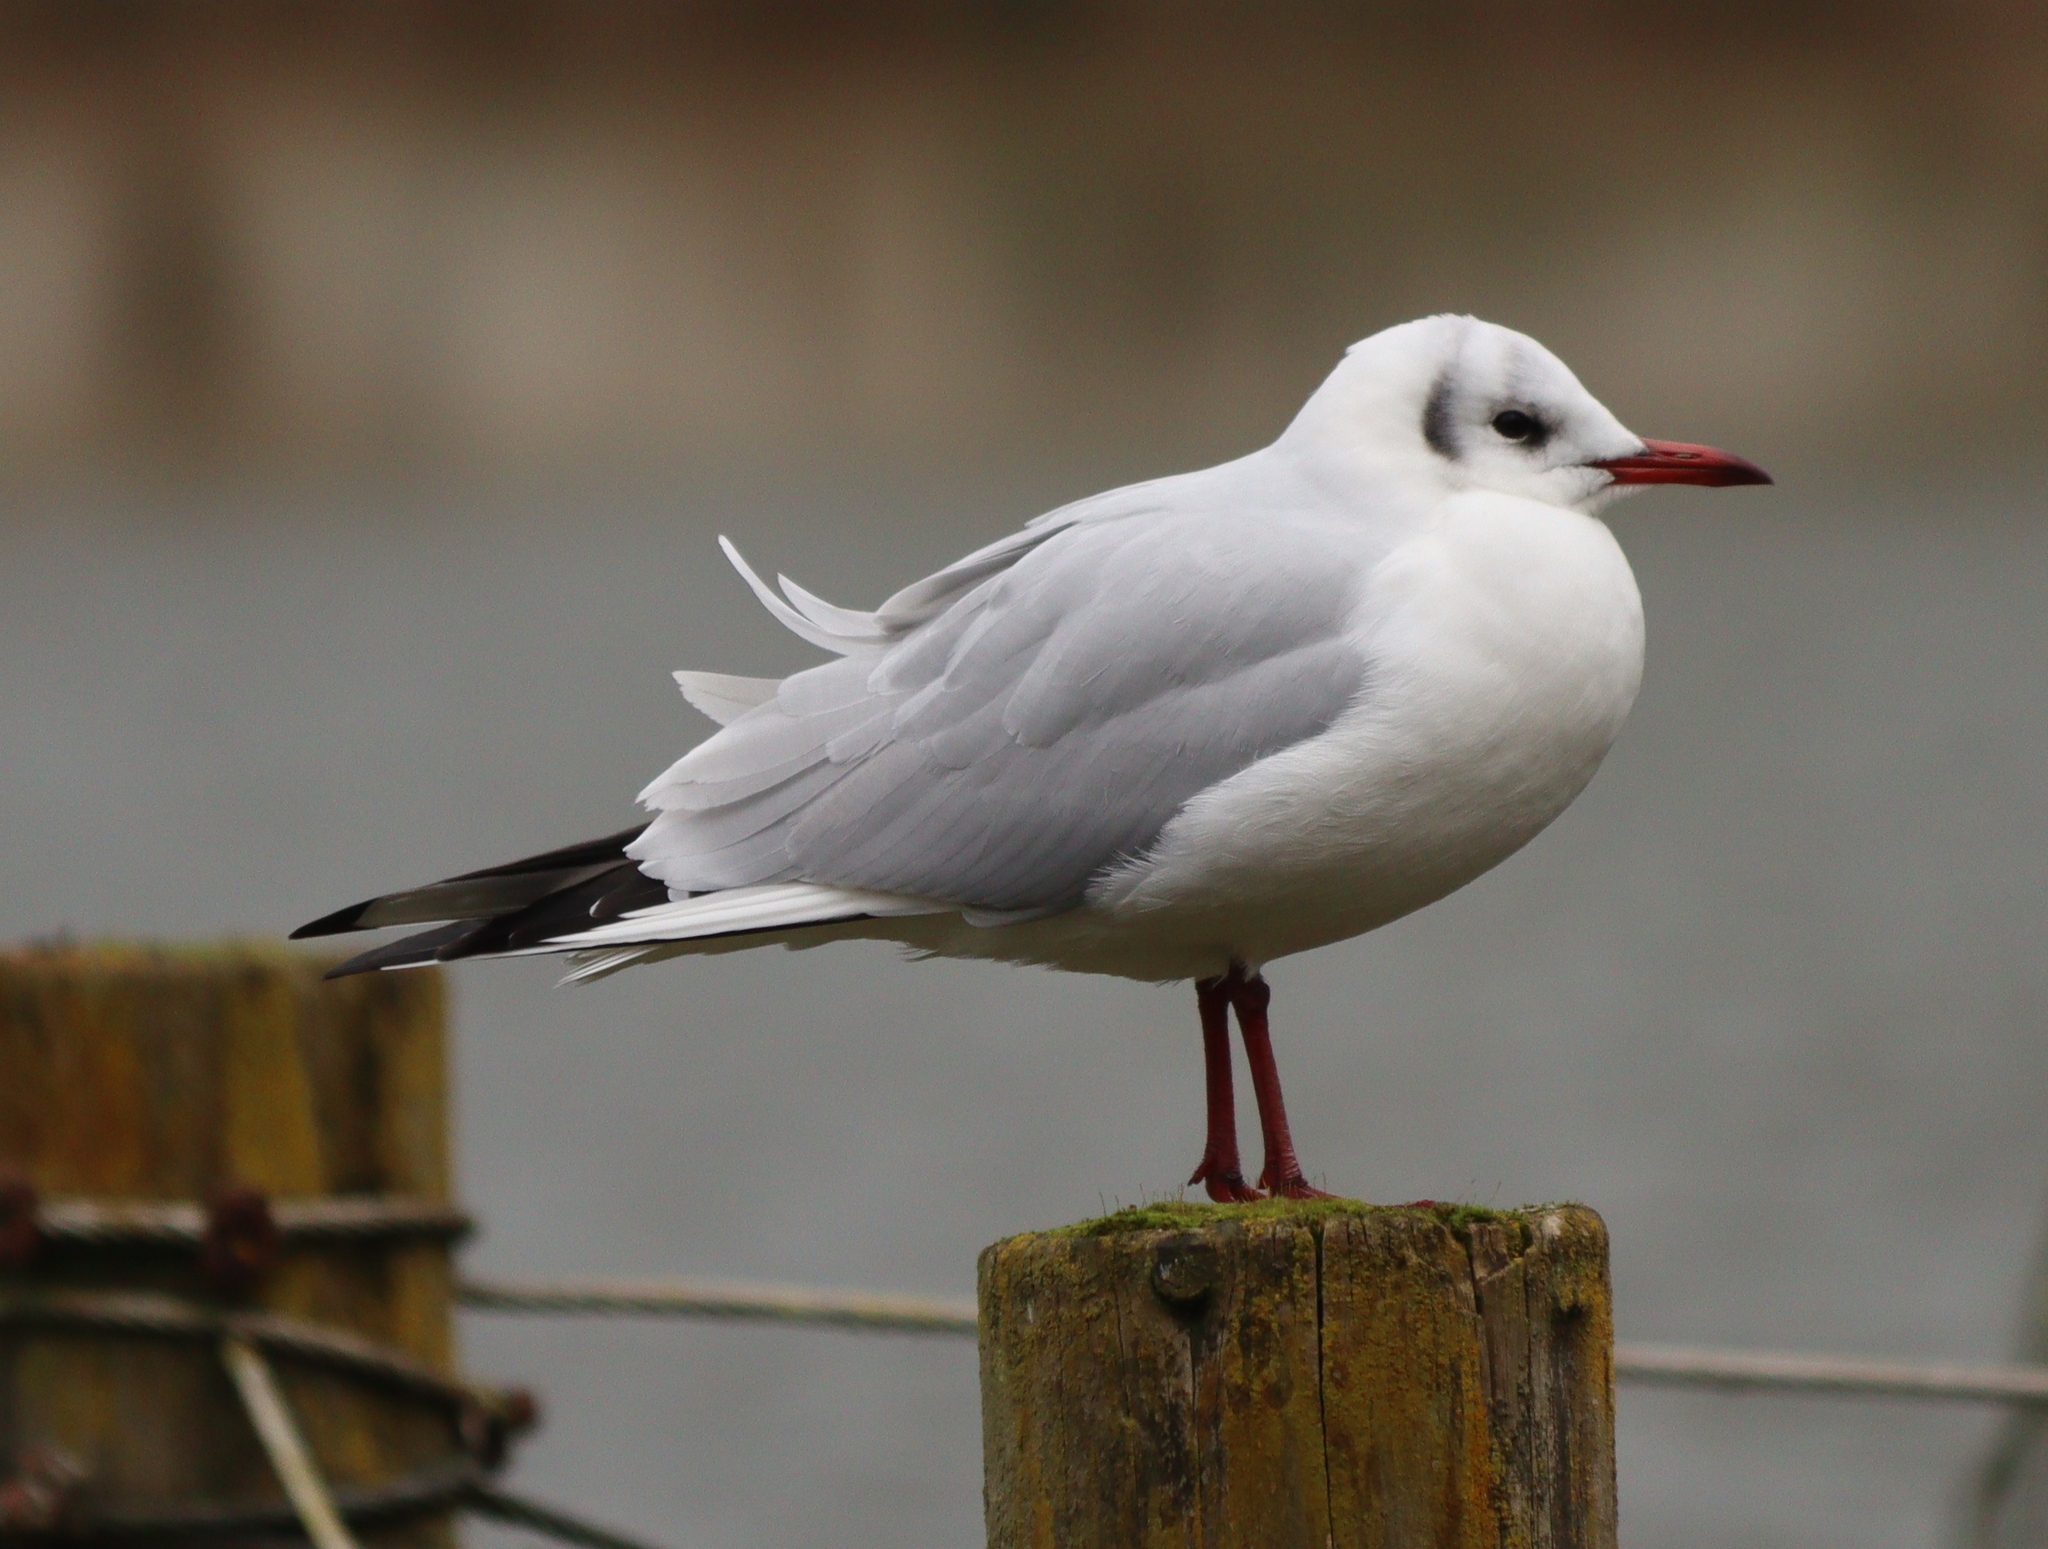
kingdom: Animalia
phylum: Chordata
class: Aves
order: Charadriiformes
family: Laridae
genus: Chroicocephalus
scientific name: Chroicocephalus ridibundus
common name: Black-headed gull
